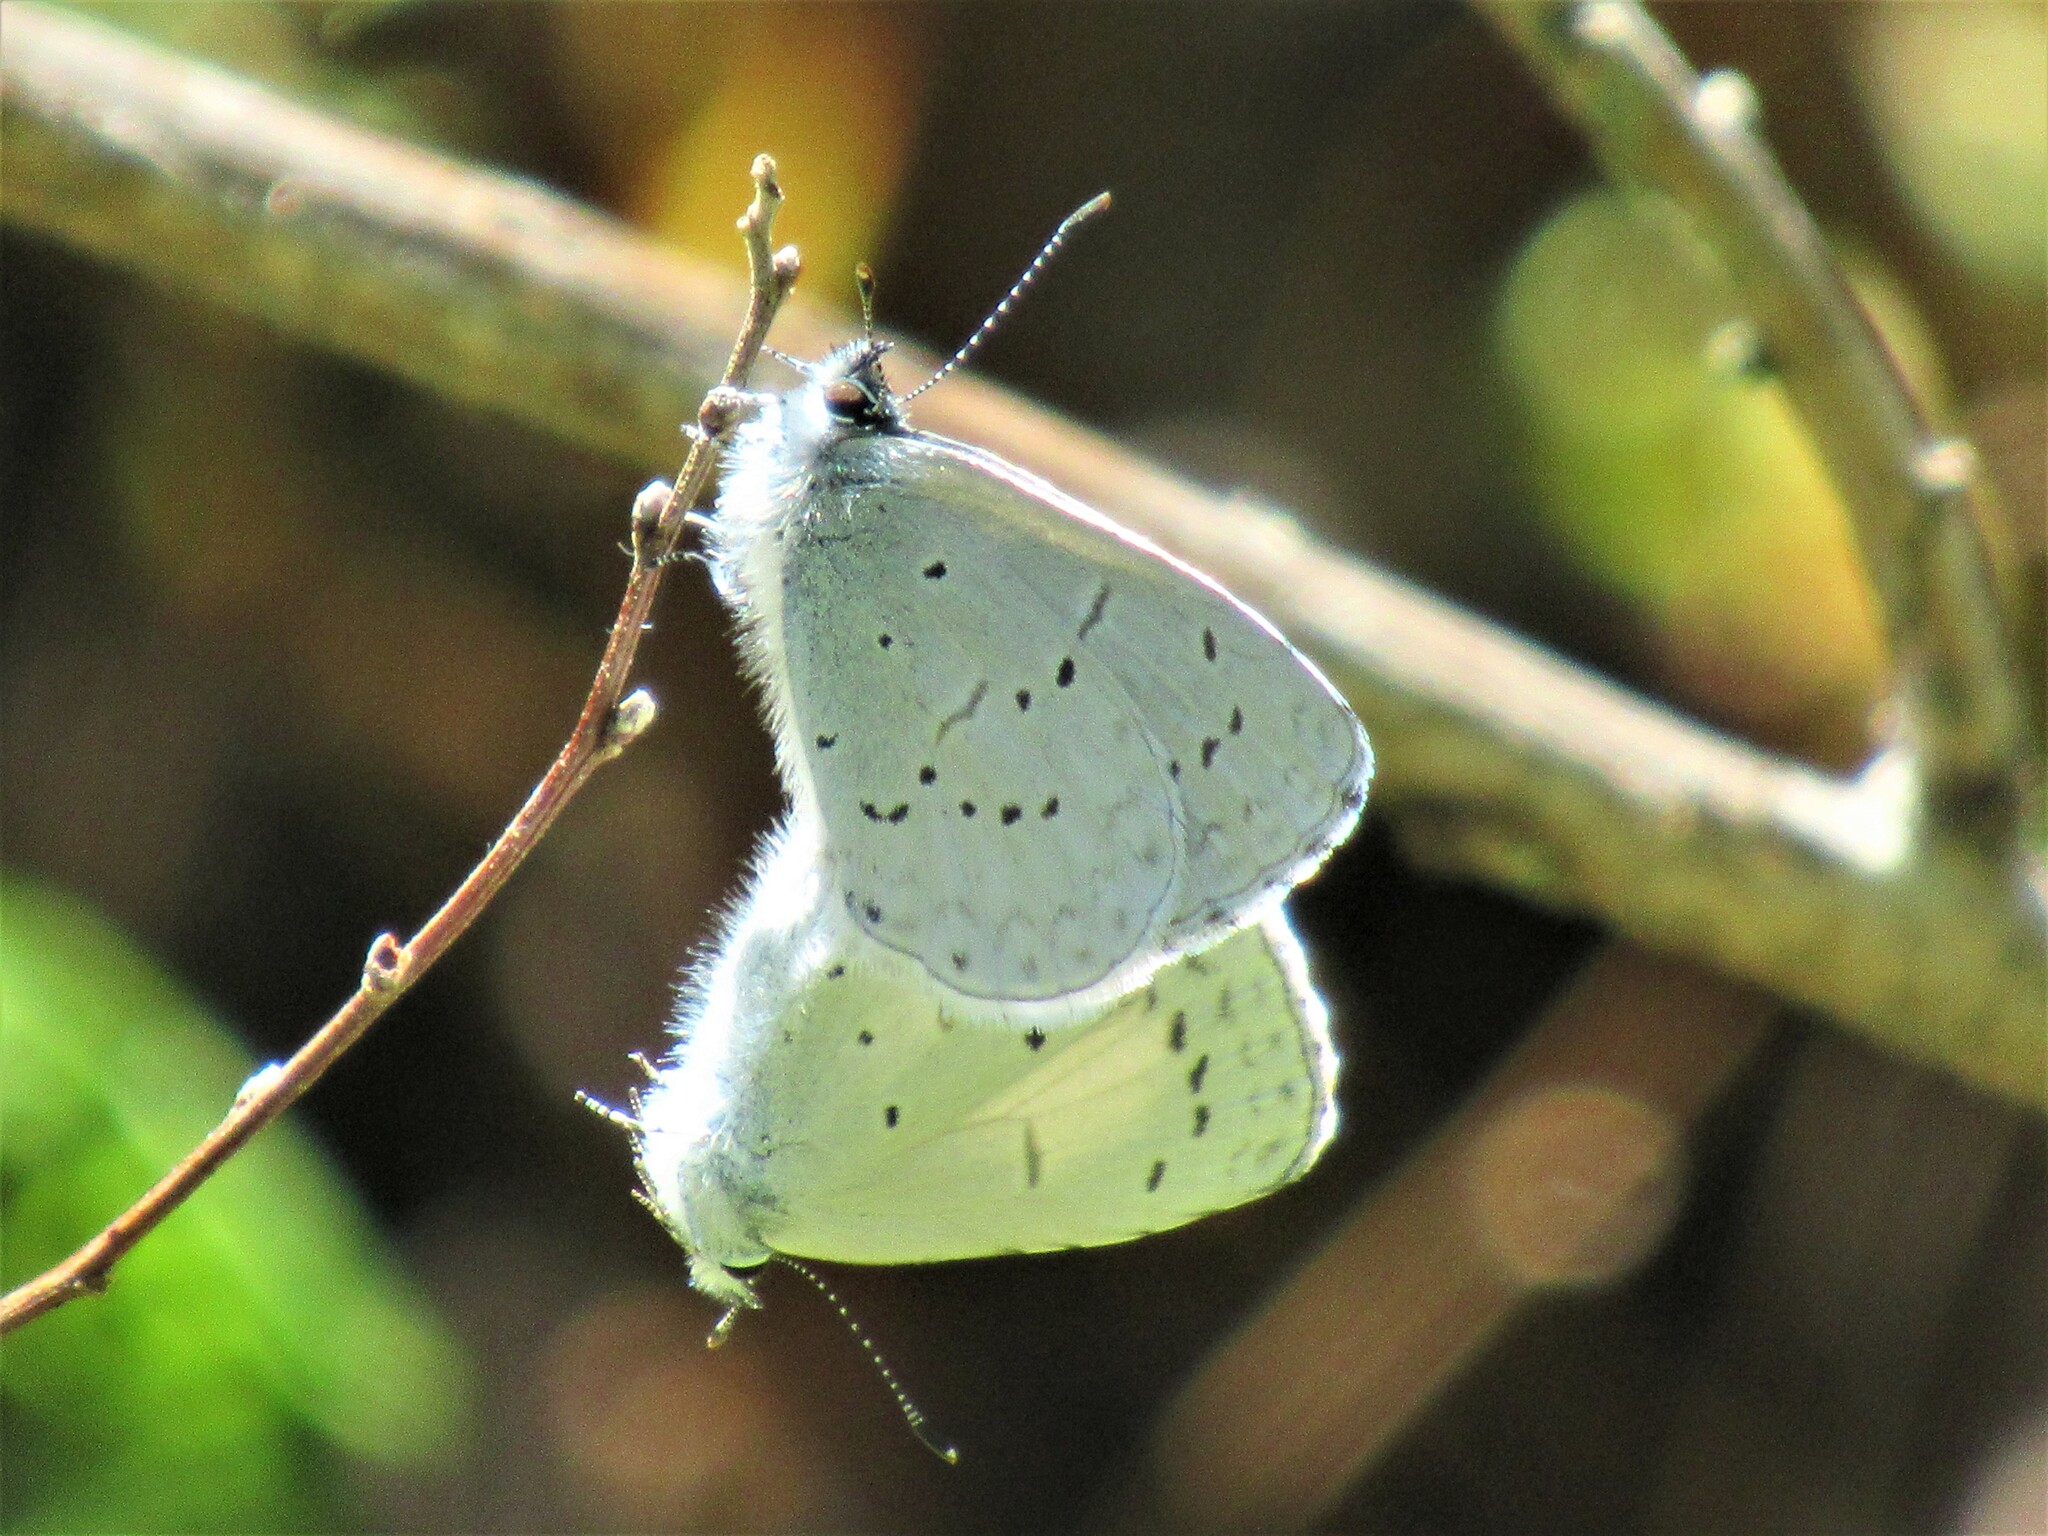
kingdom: Animalia
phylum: Arthropoda
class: Insecta
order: Lepidoptera
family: Lycaenidae
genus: Celastrina
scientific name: Celastrina ladon
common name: Spring azure
